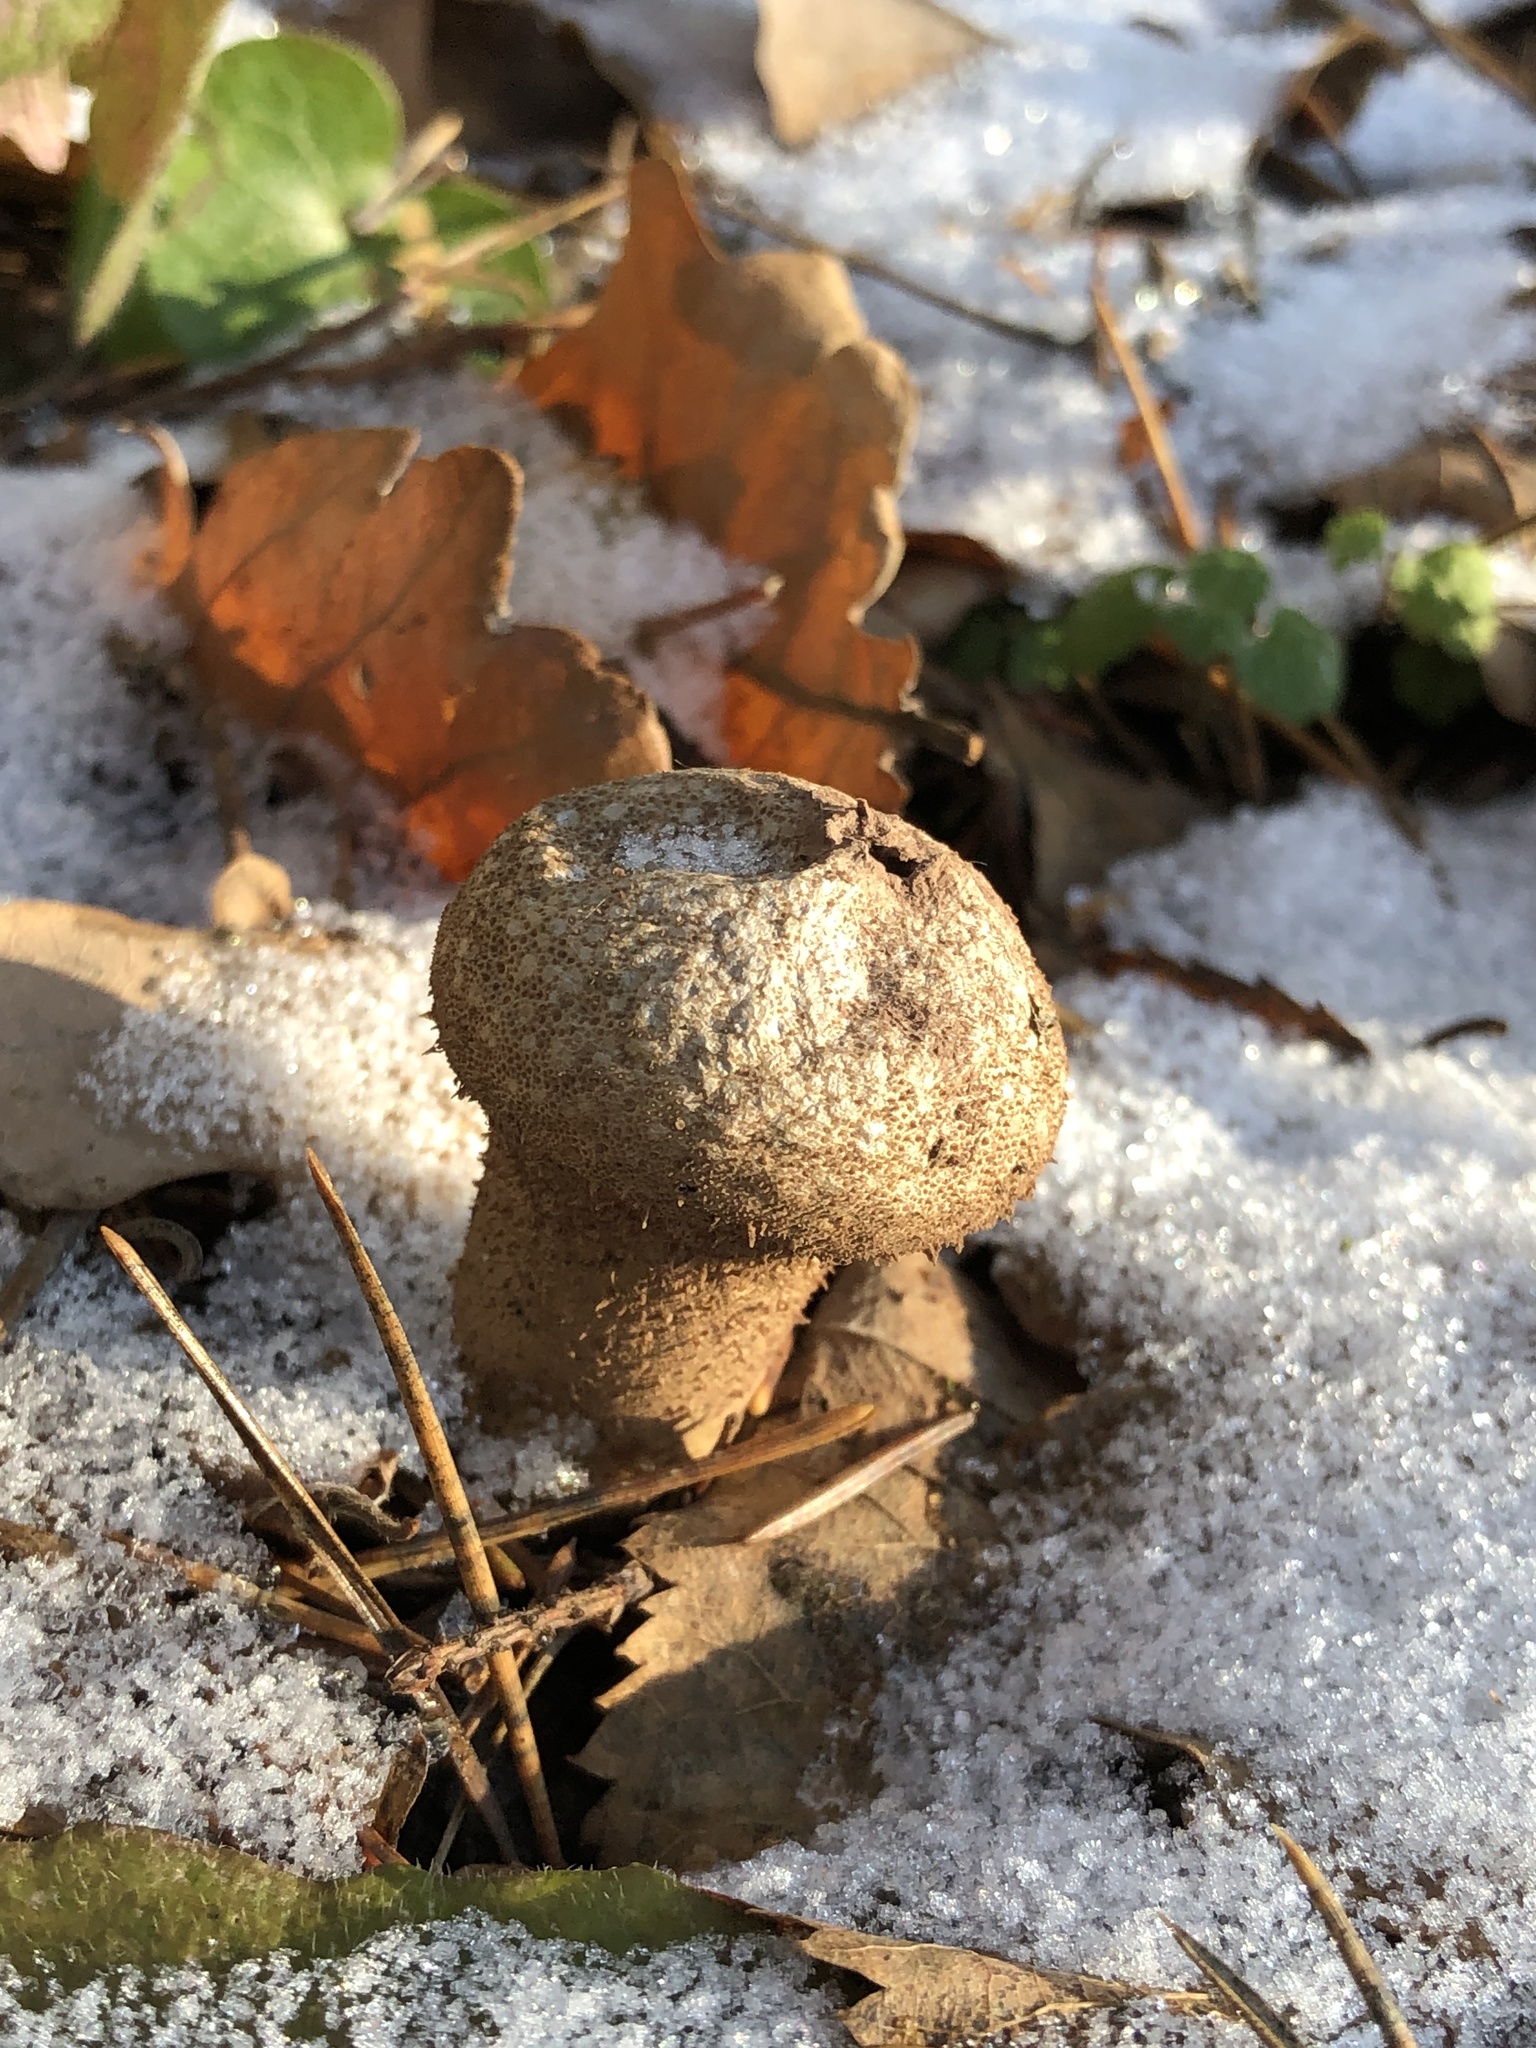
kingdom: Fungi
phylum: Basidiomycota
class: Agaricomycetes
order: Agaricales
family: Lycoperdaceae
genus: Lycoperdon
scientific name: Lycoperdon perlatum
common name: Common puffball
